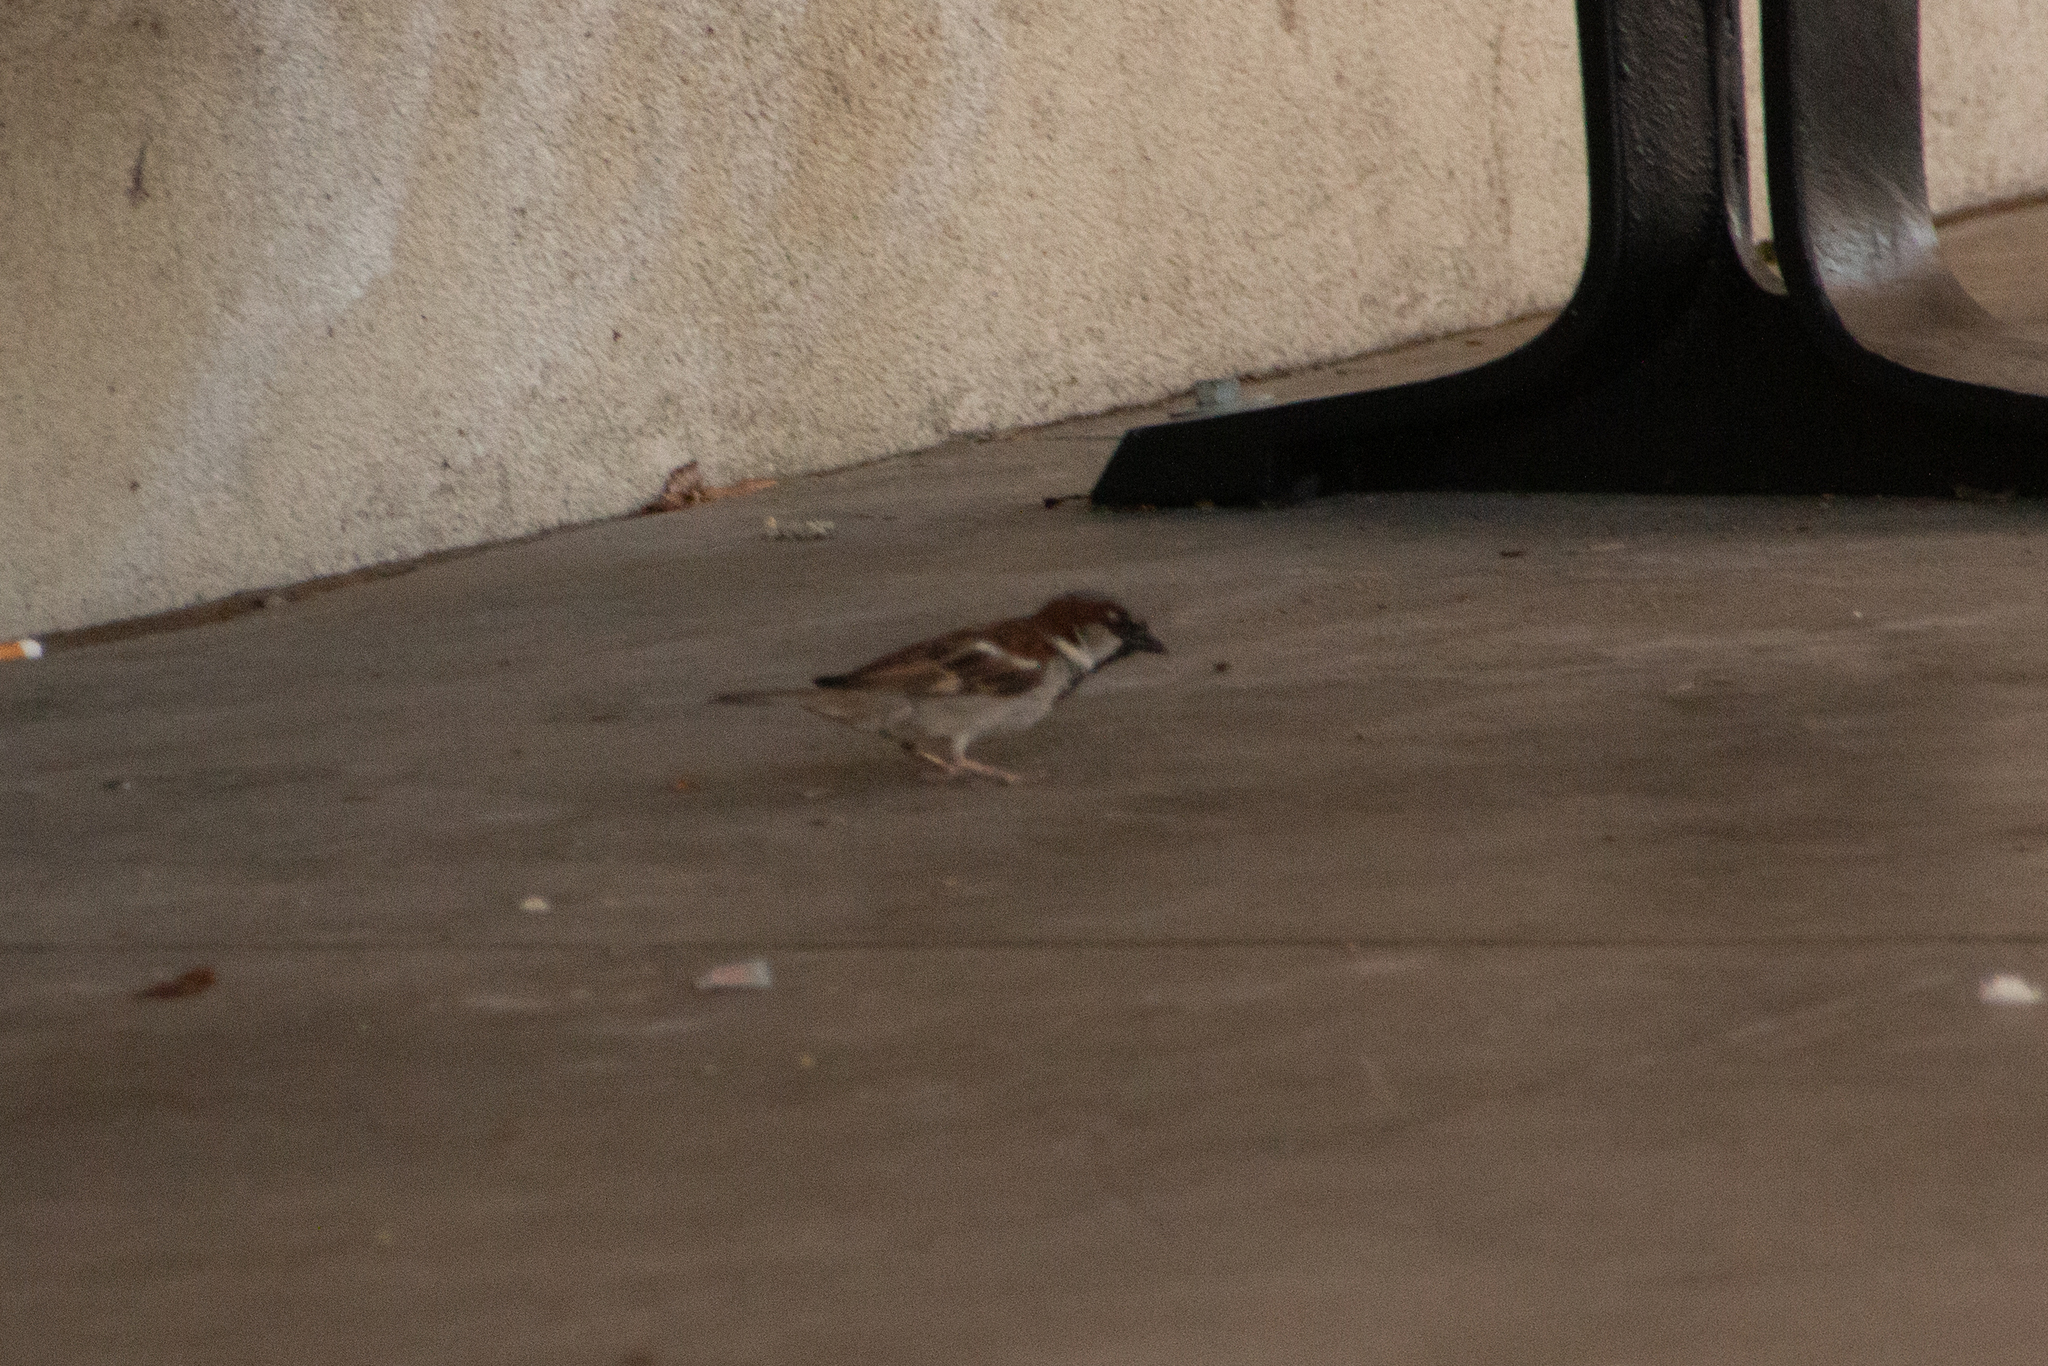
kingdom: Animalia
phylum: Chordata
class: Aves
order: Passeriformes
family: Passeridae
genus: Passer
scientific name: Passer domesticus
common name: House sparrow
